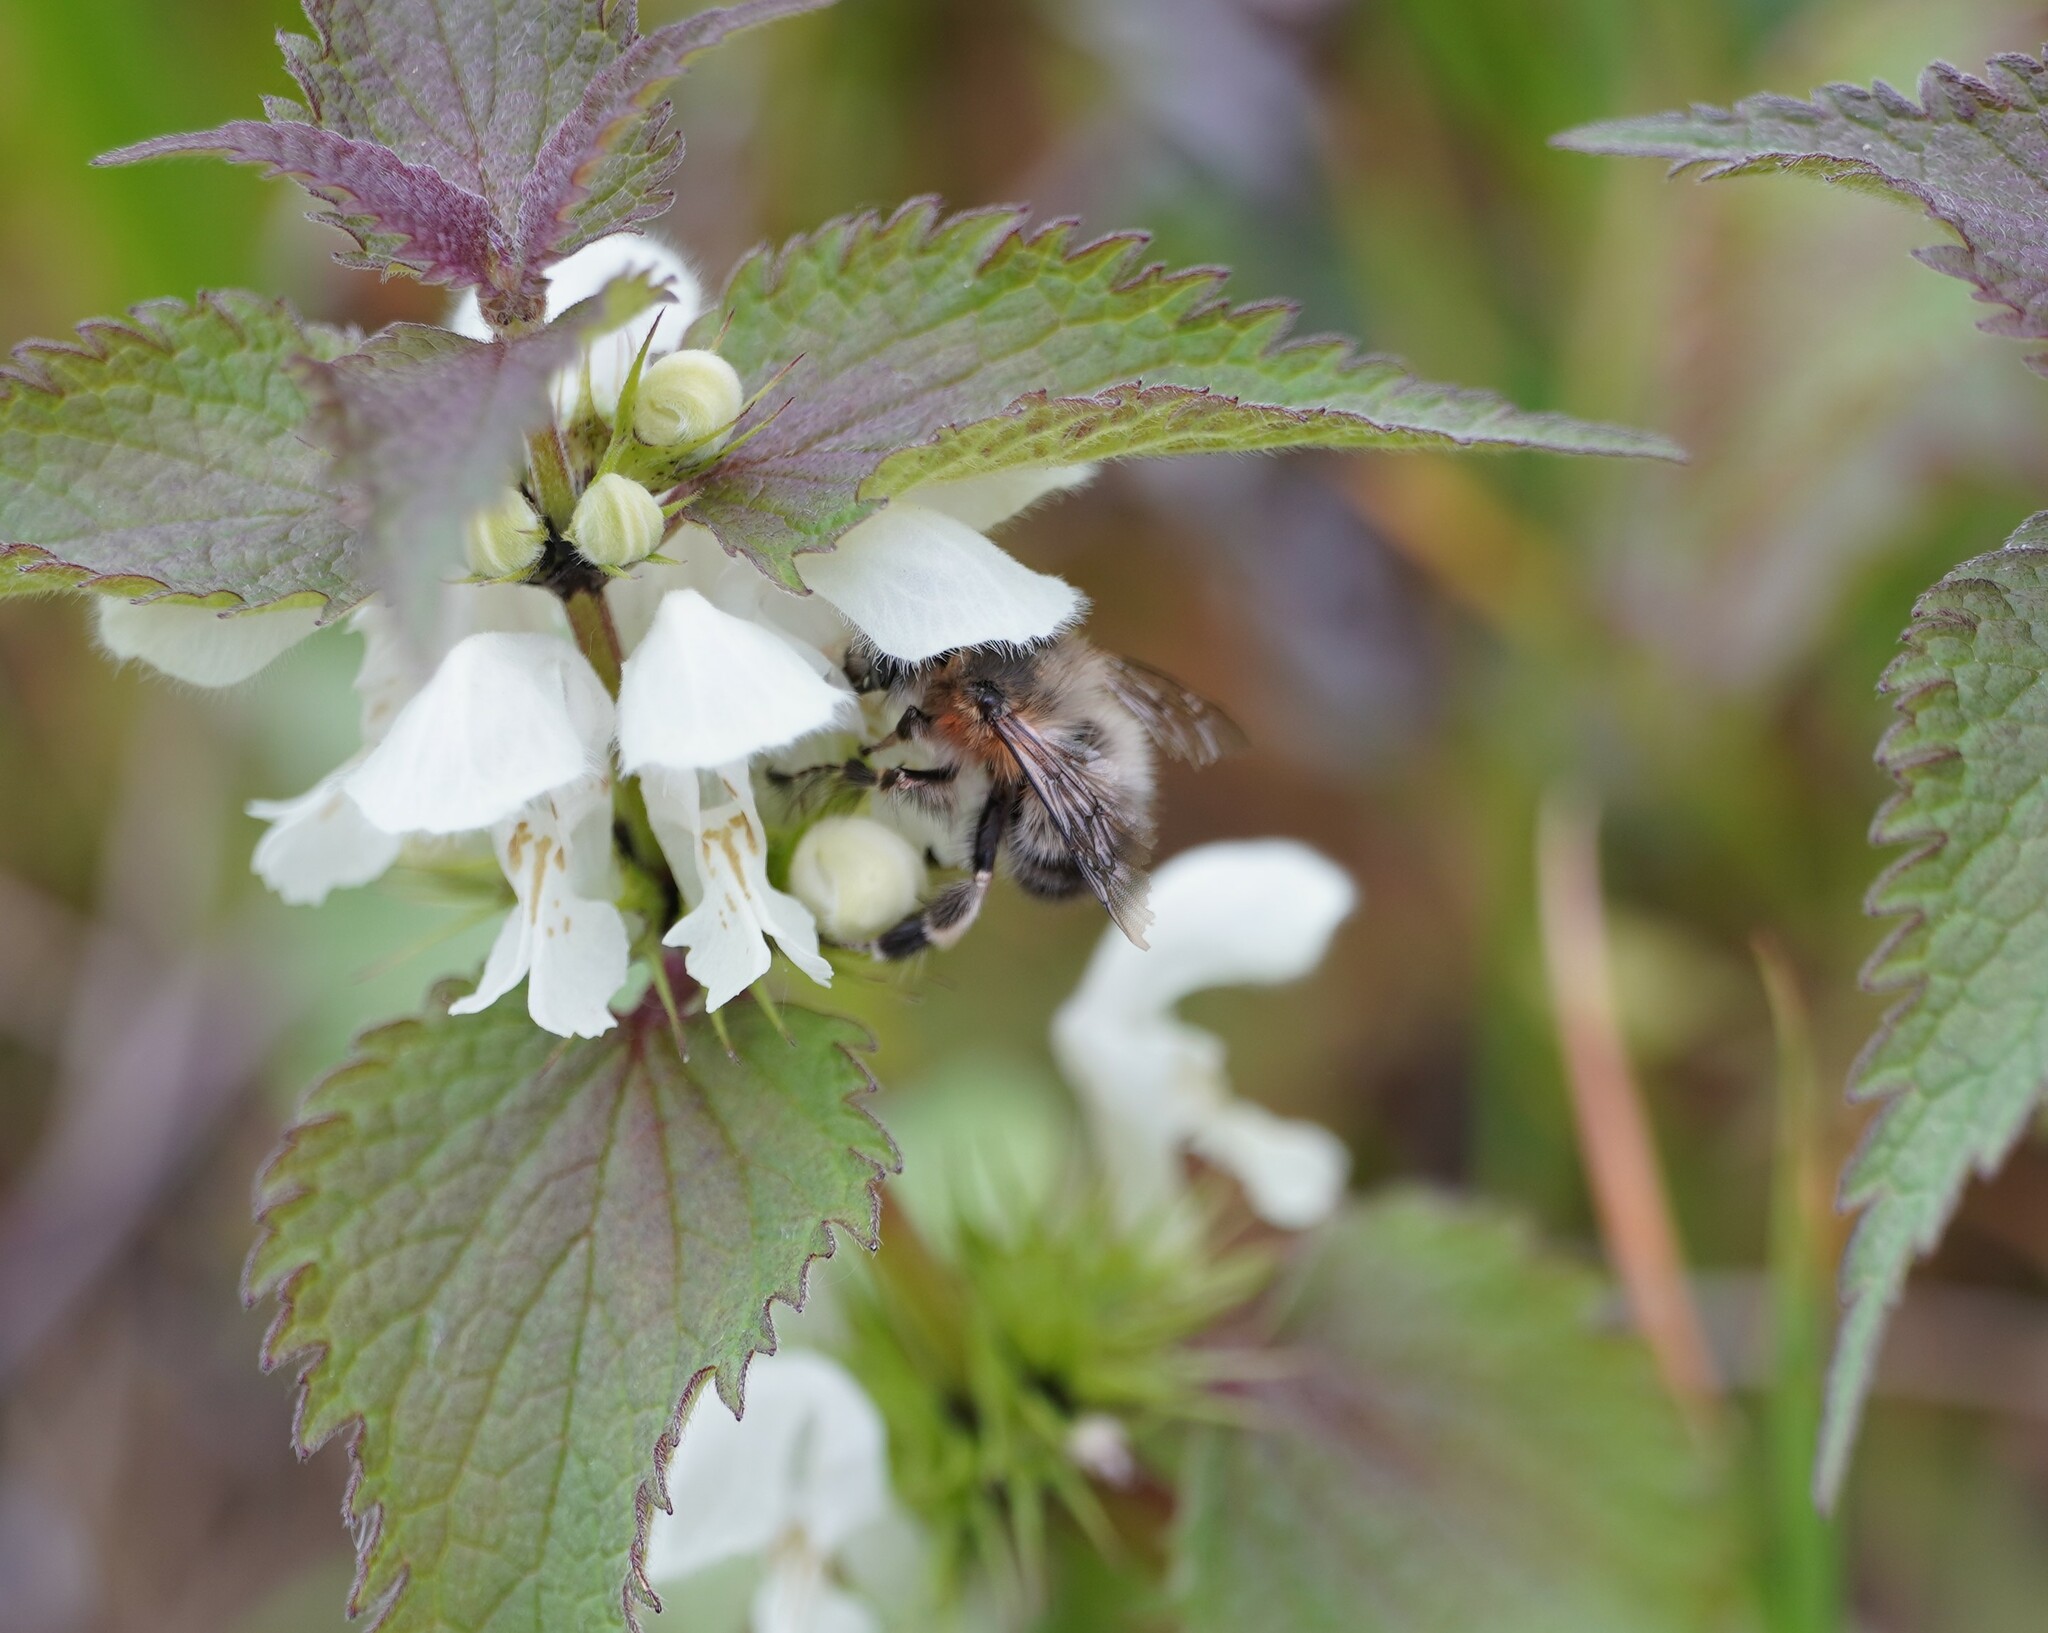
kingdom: Animalia
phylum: Arthropoda
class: Insecta
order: Hymenoptera
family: Apidae
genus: Anthophora
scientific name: Anthophora plumipes
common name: Hairy-footed flower bee
